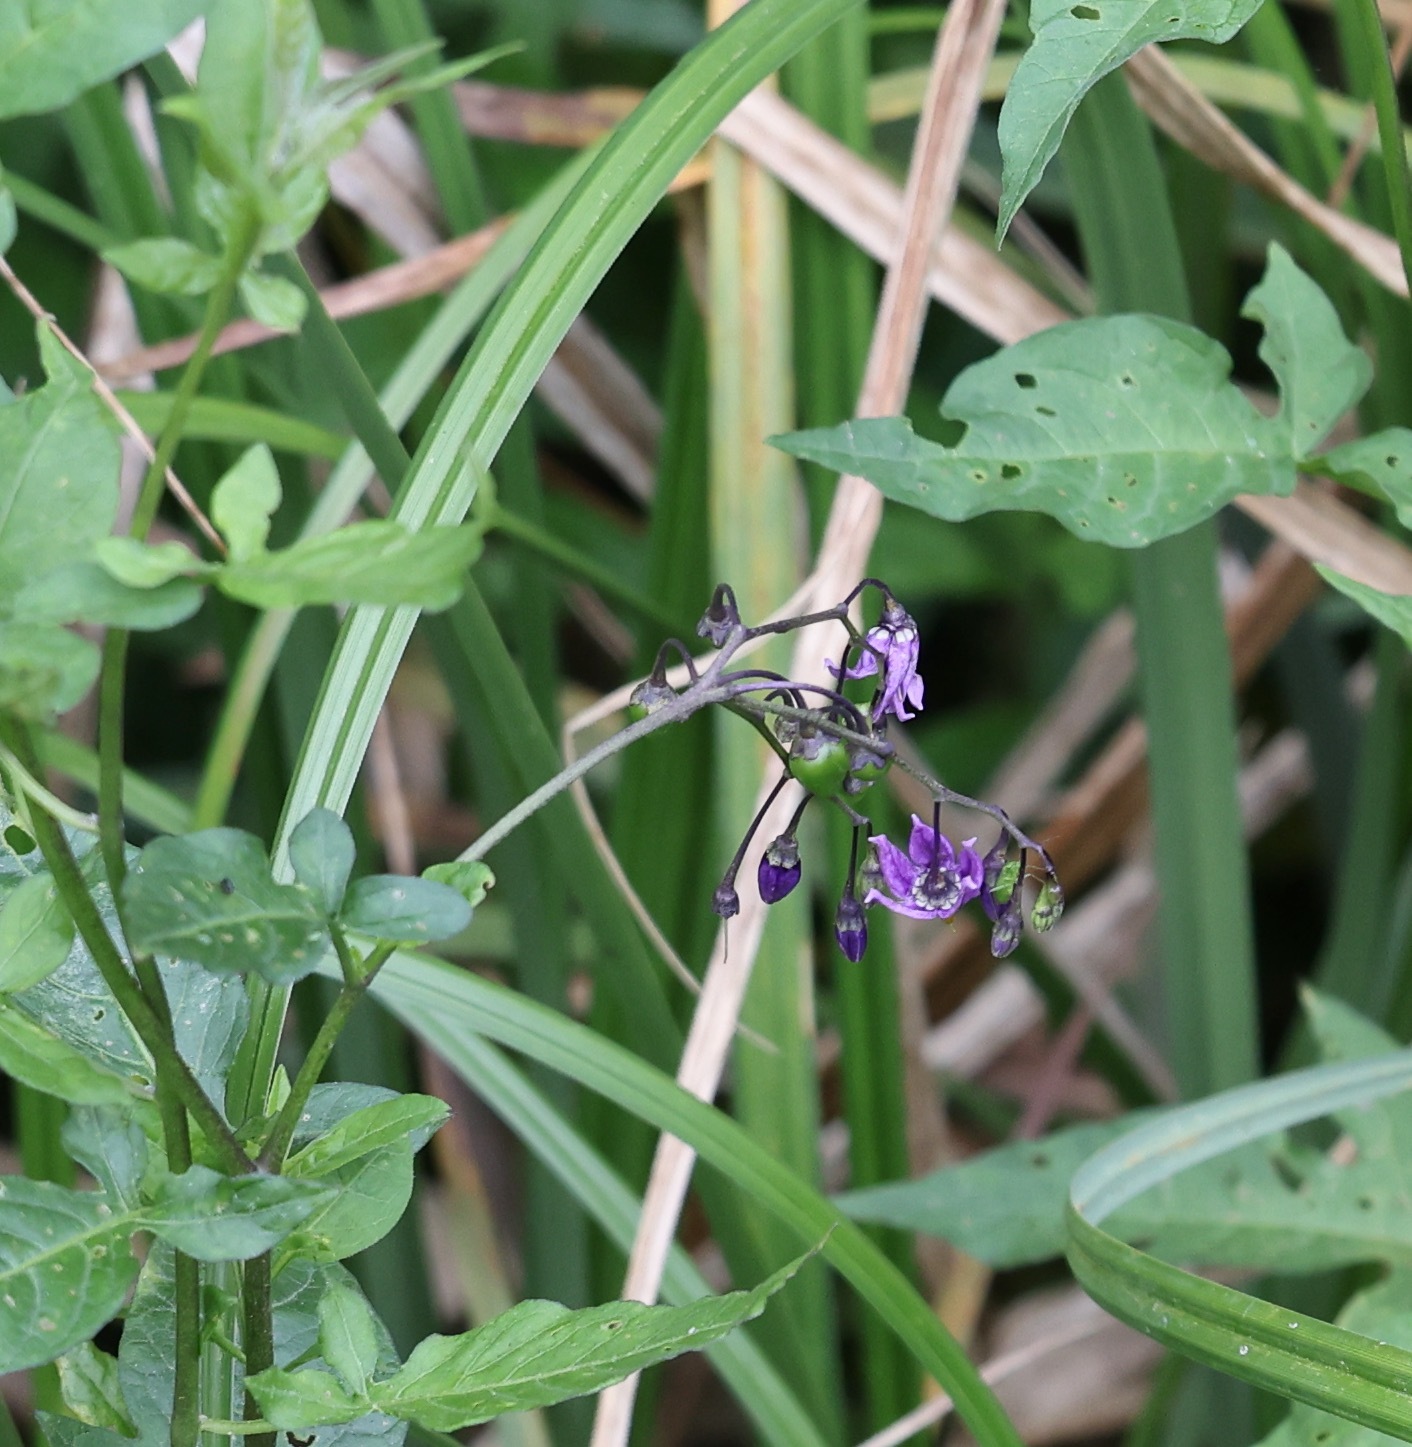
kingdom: Plantae
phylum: Tracheophyta
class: Magnoliopsida
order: Solanales
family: Solanaceae
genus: Solanum
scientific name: Solanum dulcamara
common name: Climbing nightshade
